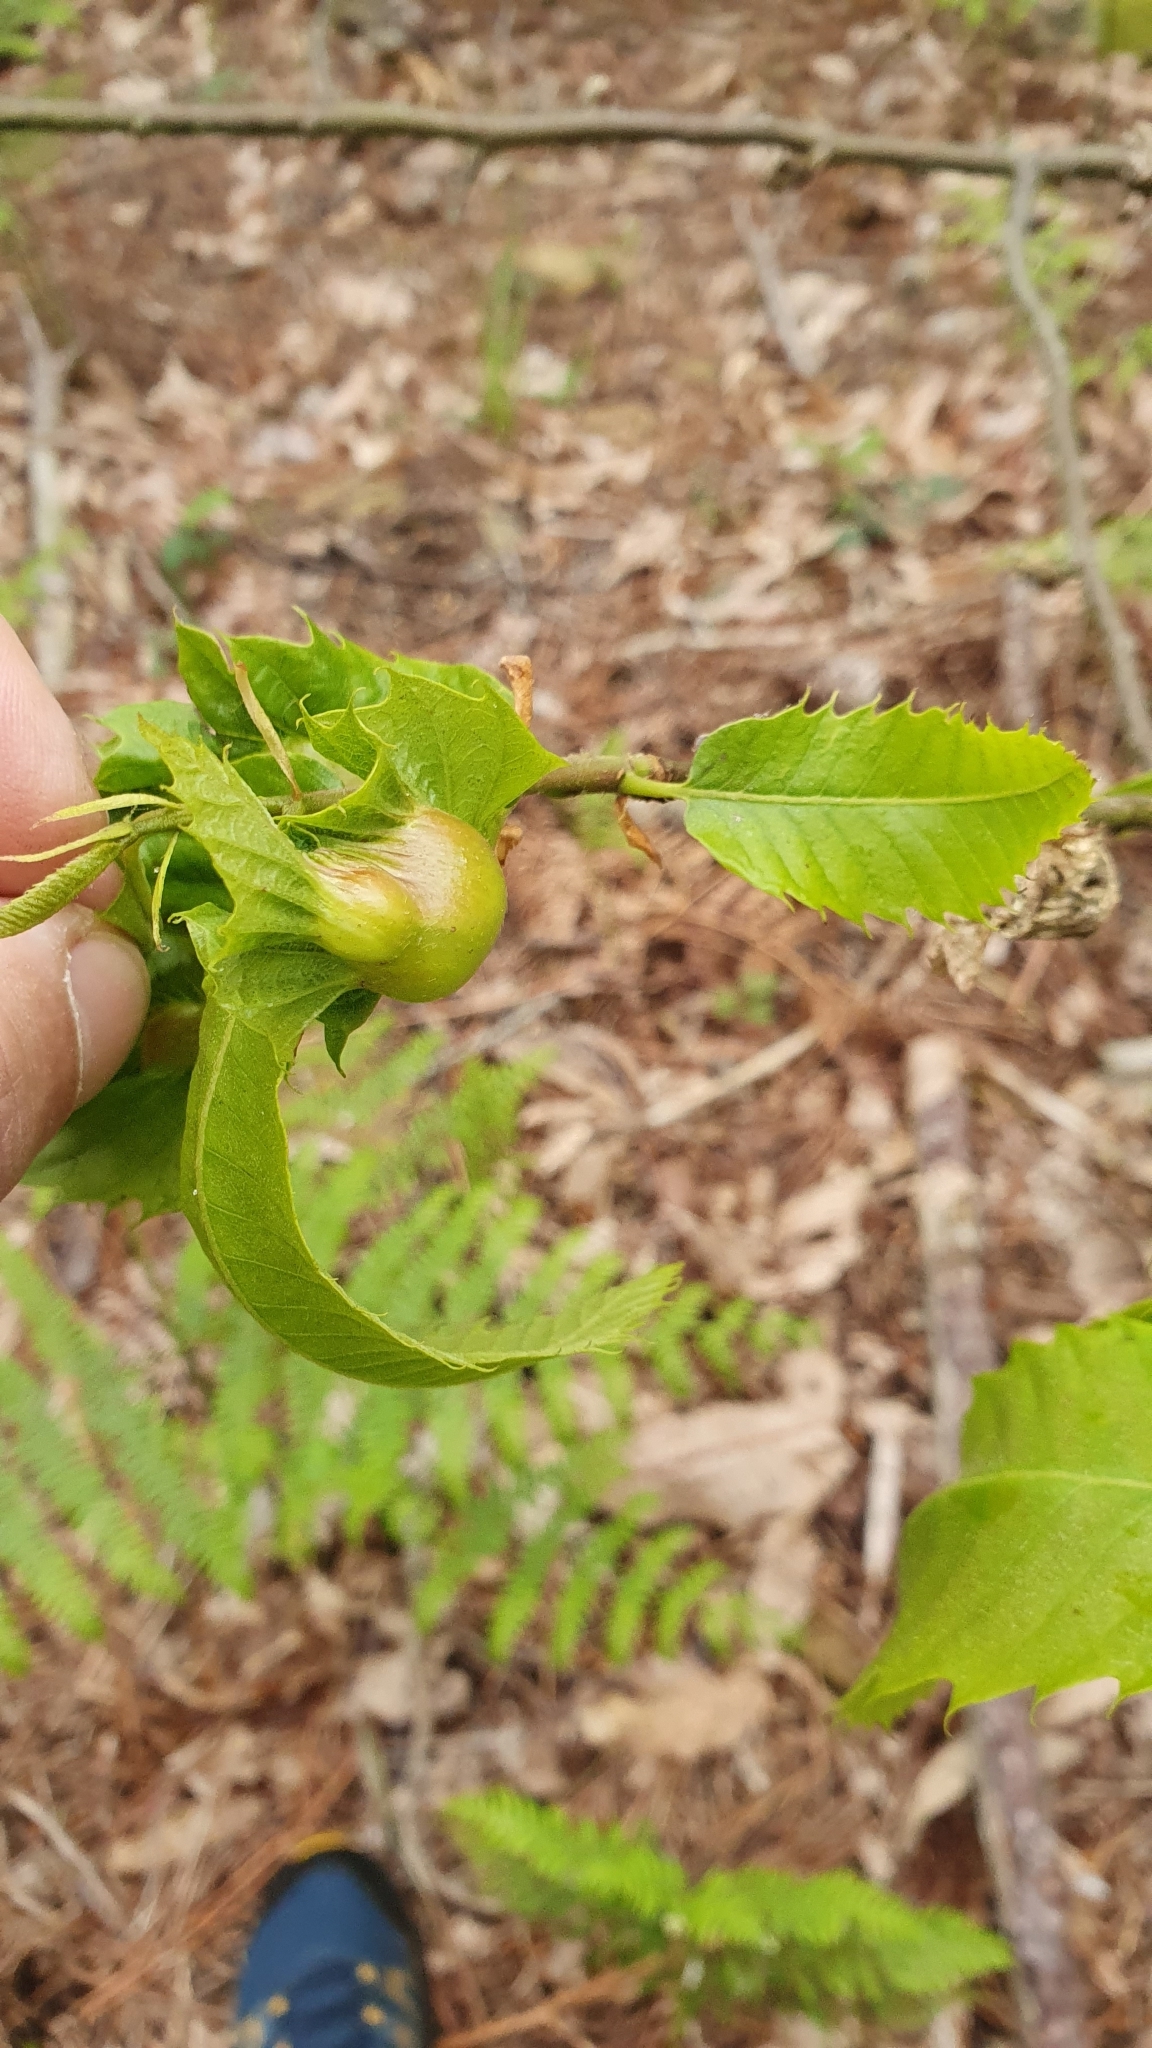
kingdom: Animalia
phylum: Arthropoda
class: Insecta
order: Hymenoptera
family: Cynipidae
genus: Dryocosmus
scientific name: Dryocosmus kuriphilus
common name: Asian chestnut gall wasp
